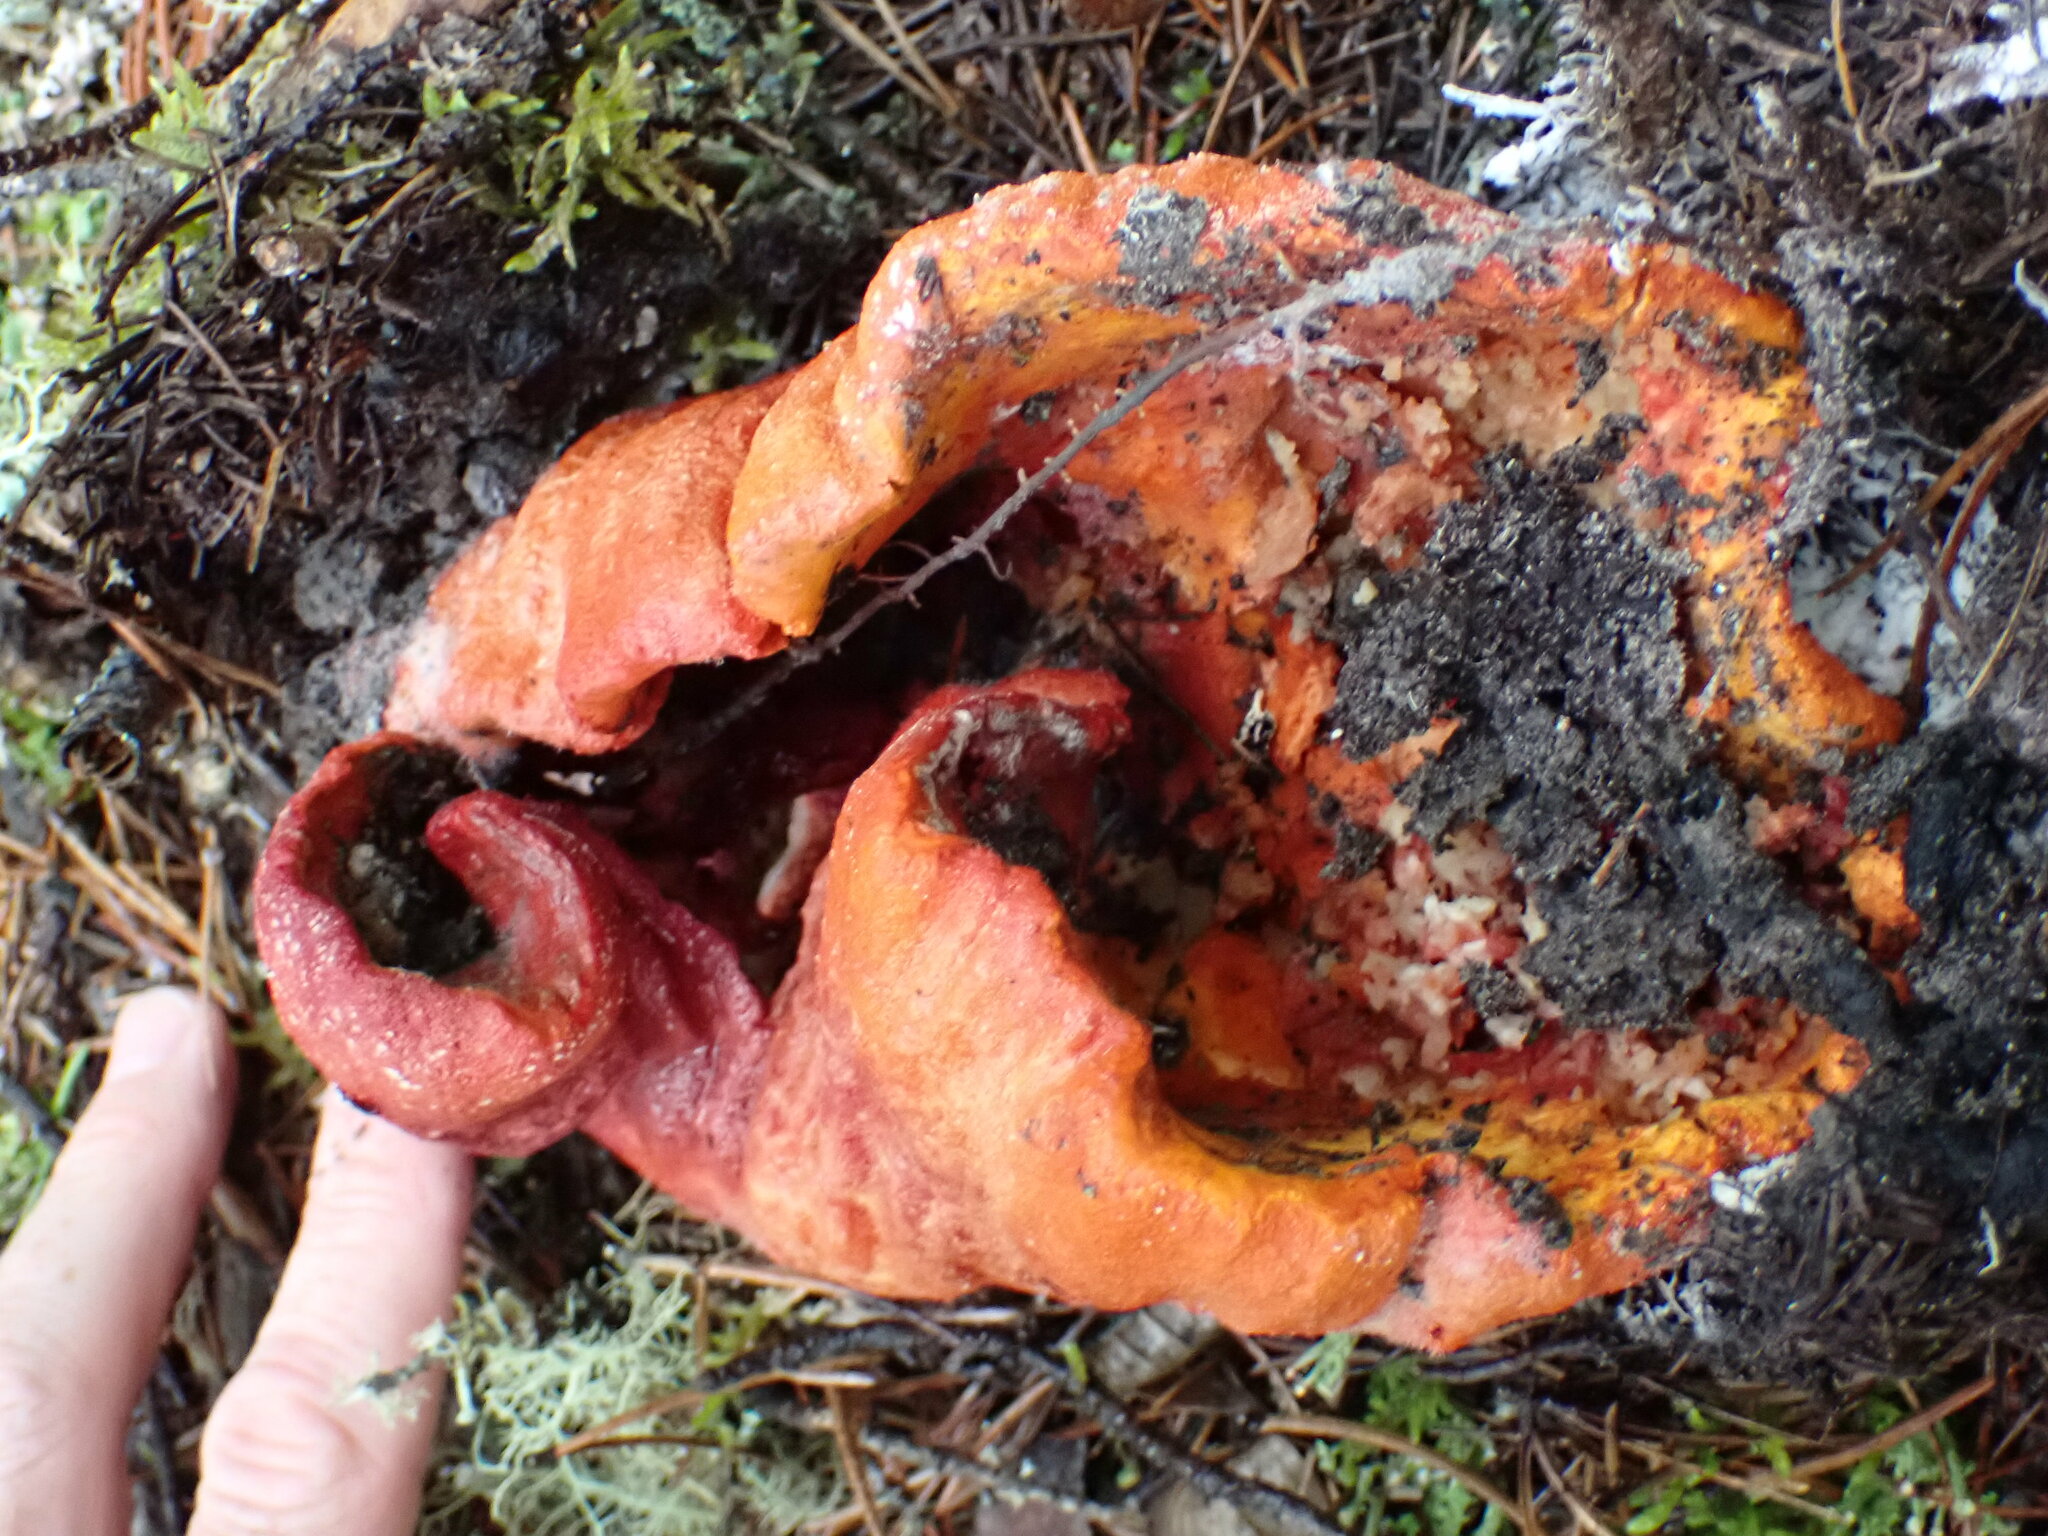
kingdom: Fungi
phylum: Ascomycota
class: Sordariomycetes
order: Hypocreales
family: Hypocreaceae
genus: Hypomyces
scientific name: Hypomyces lactifluorum
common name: Lobster mushroom
